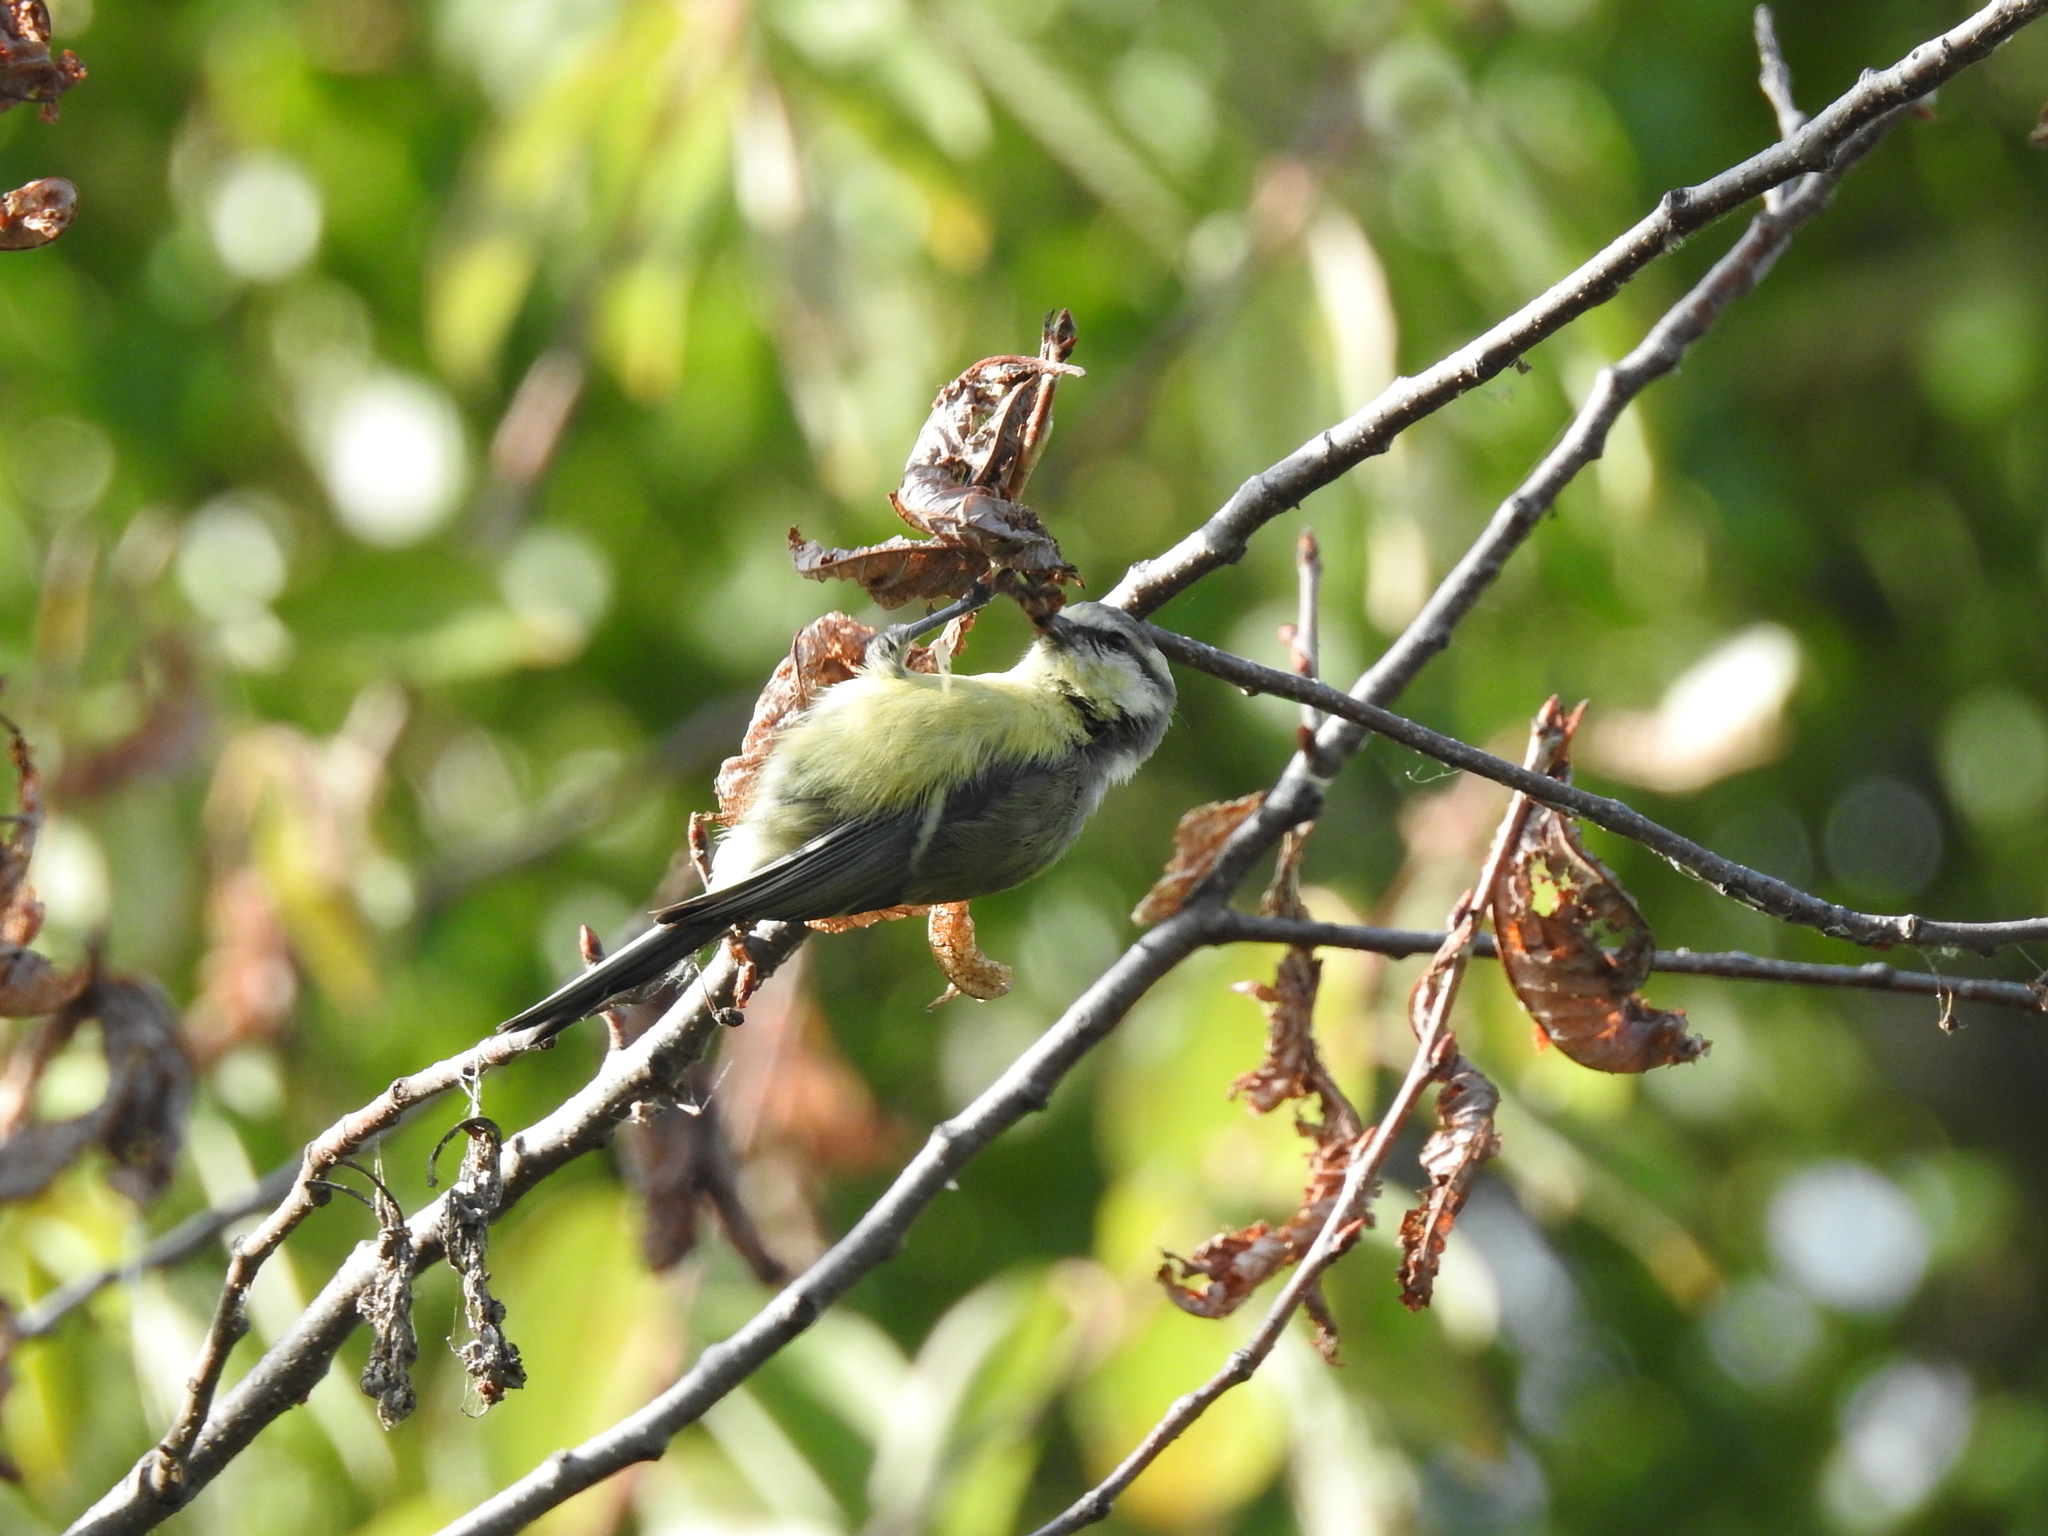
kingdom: Animalia
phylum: Chordata
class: Aves
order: Passeriformes
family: Paridae
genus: Cyanistes
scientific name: Cyanistes caeruleus
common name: Eurasian blue tit
